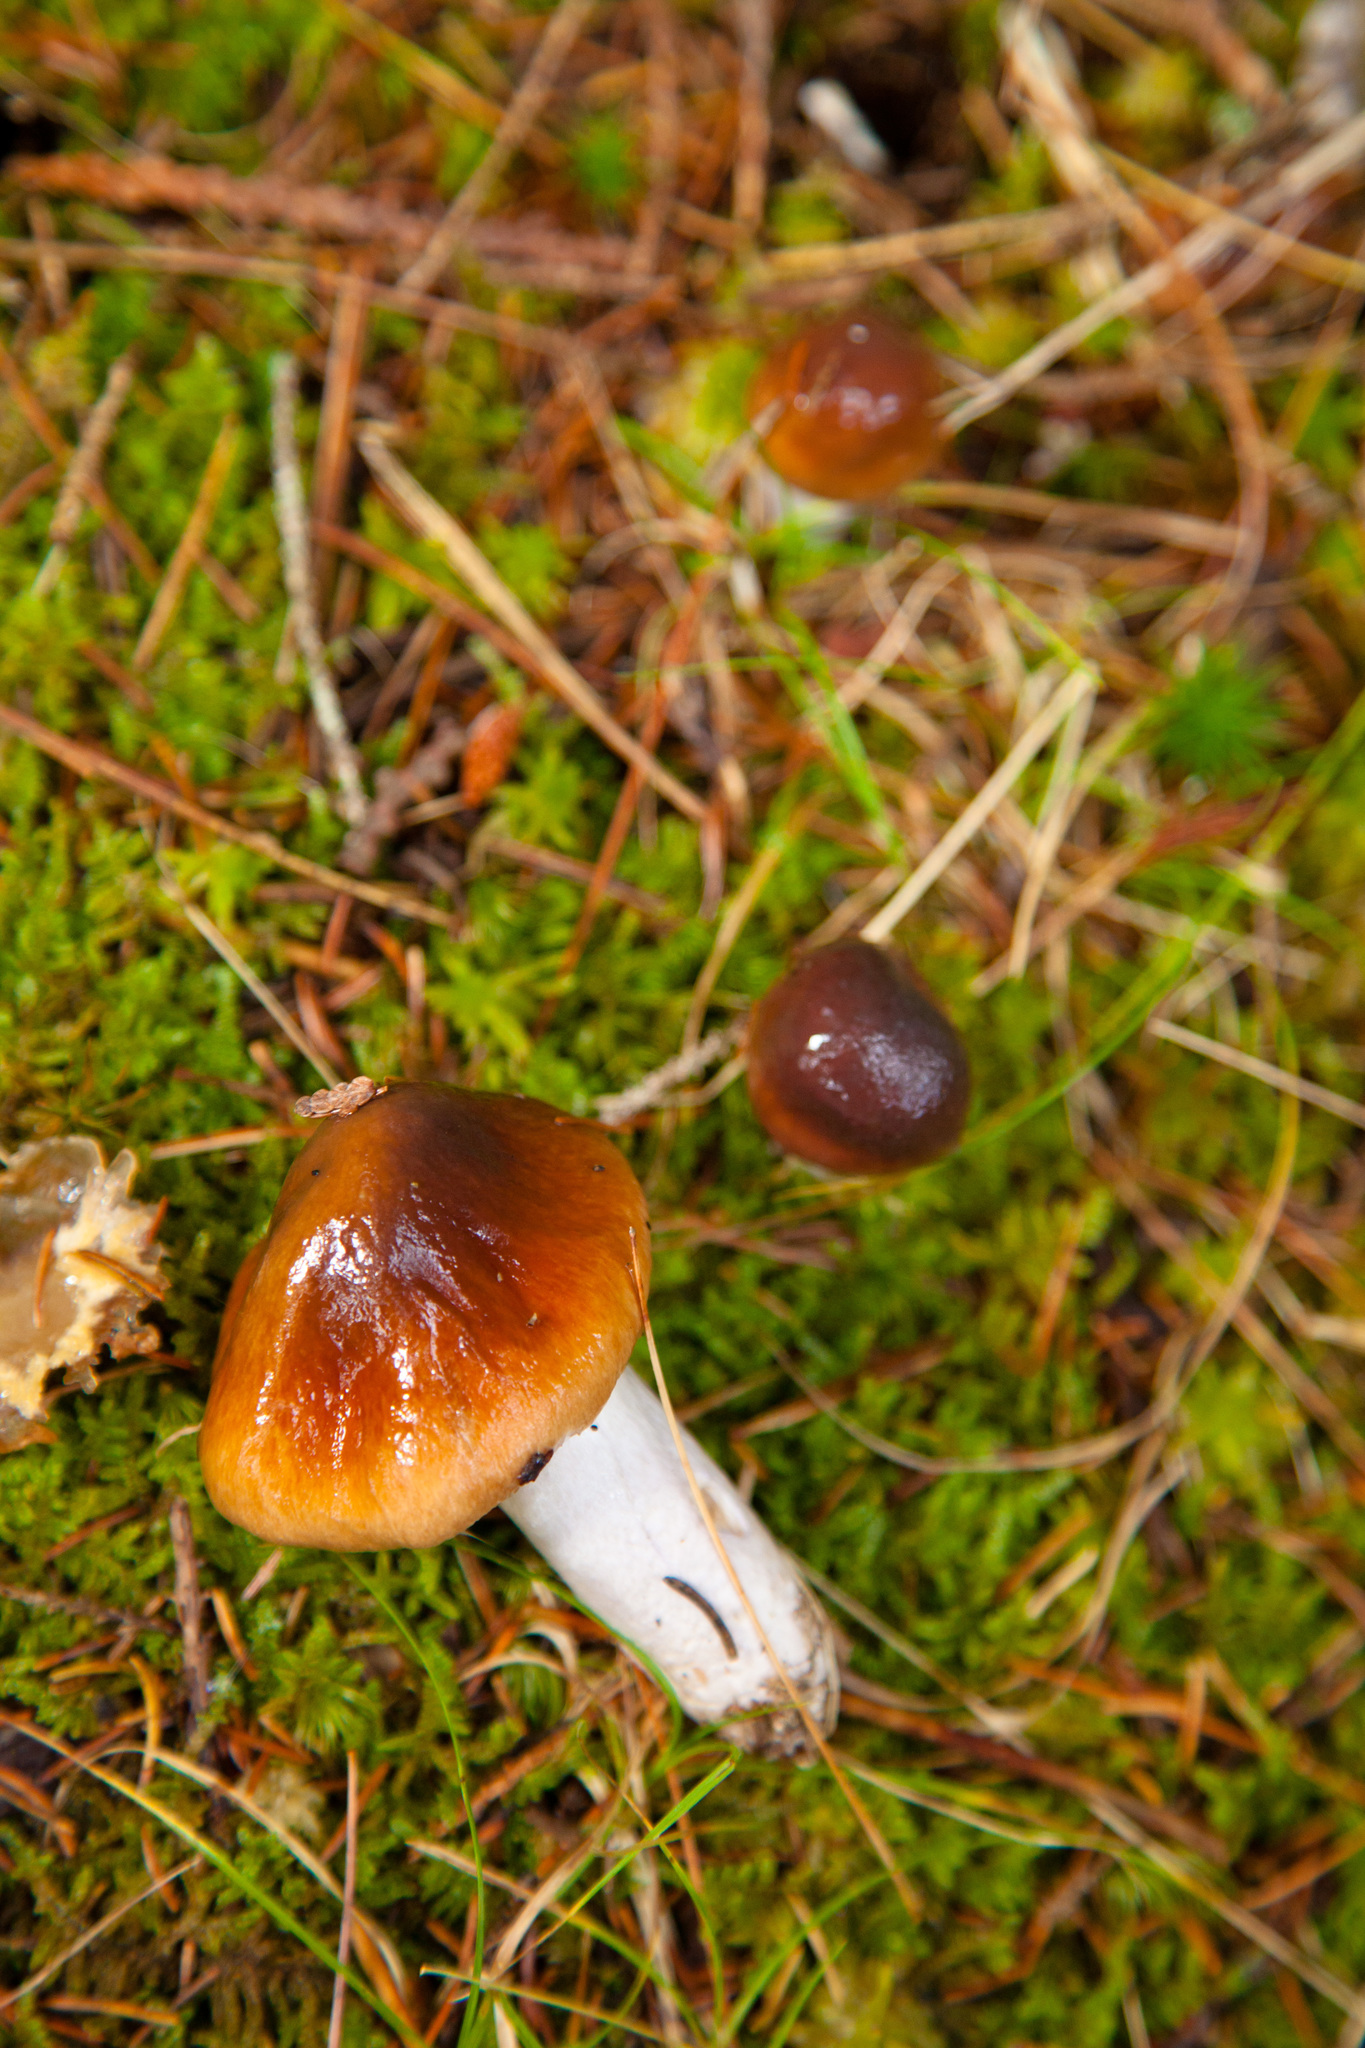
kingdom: Fungi
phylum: Basidiomycota
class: Agaricomycetes
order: Agaricales
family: Physalacriaceae
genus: Hymenopellis
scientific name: Hymenopellis sinapicolor
